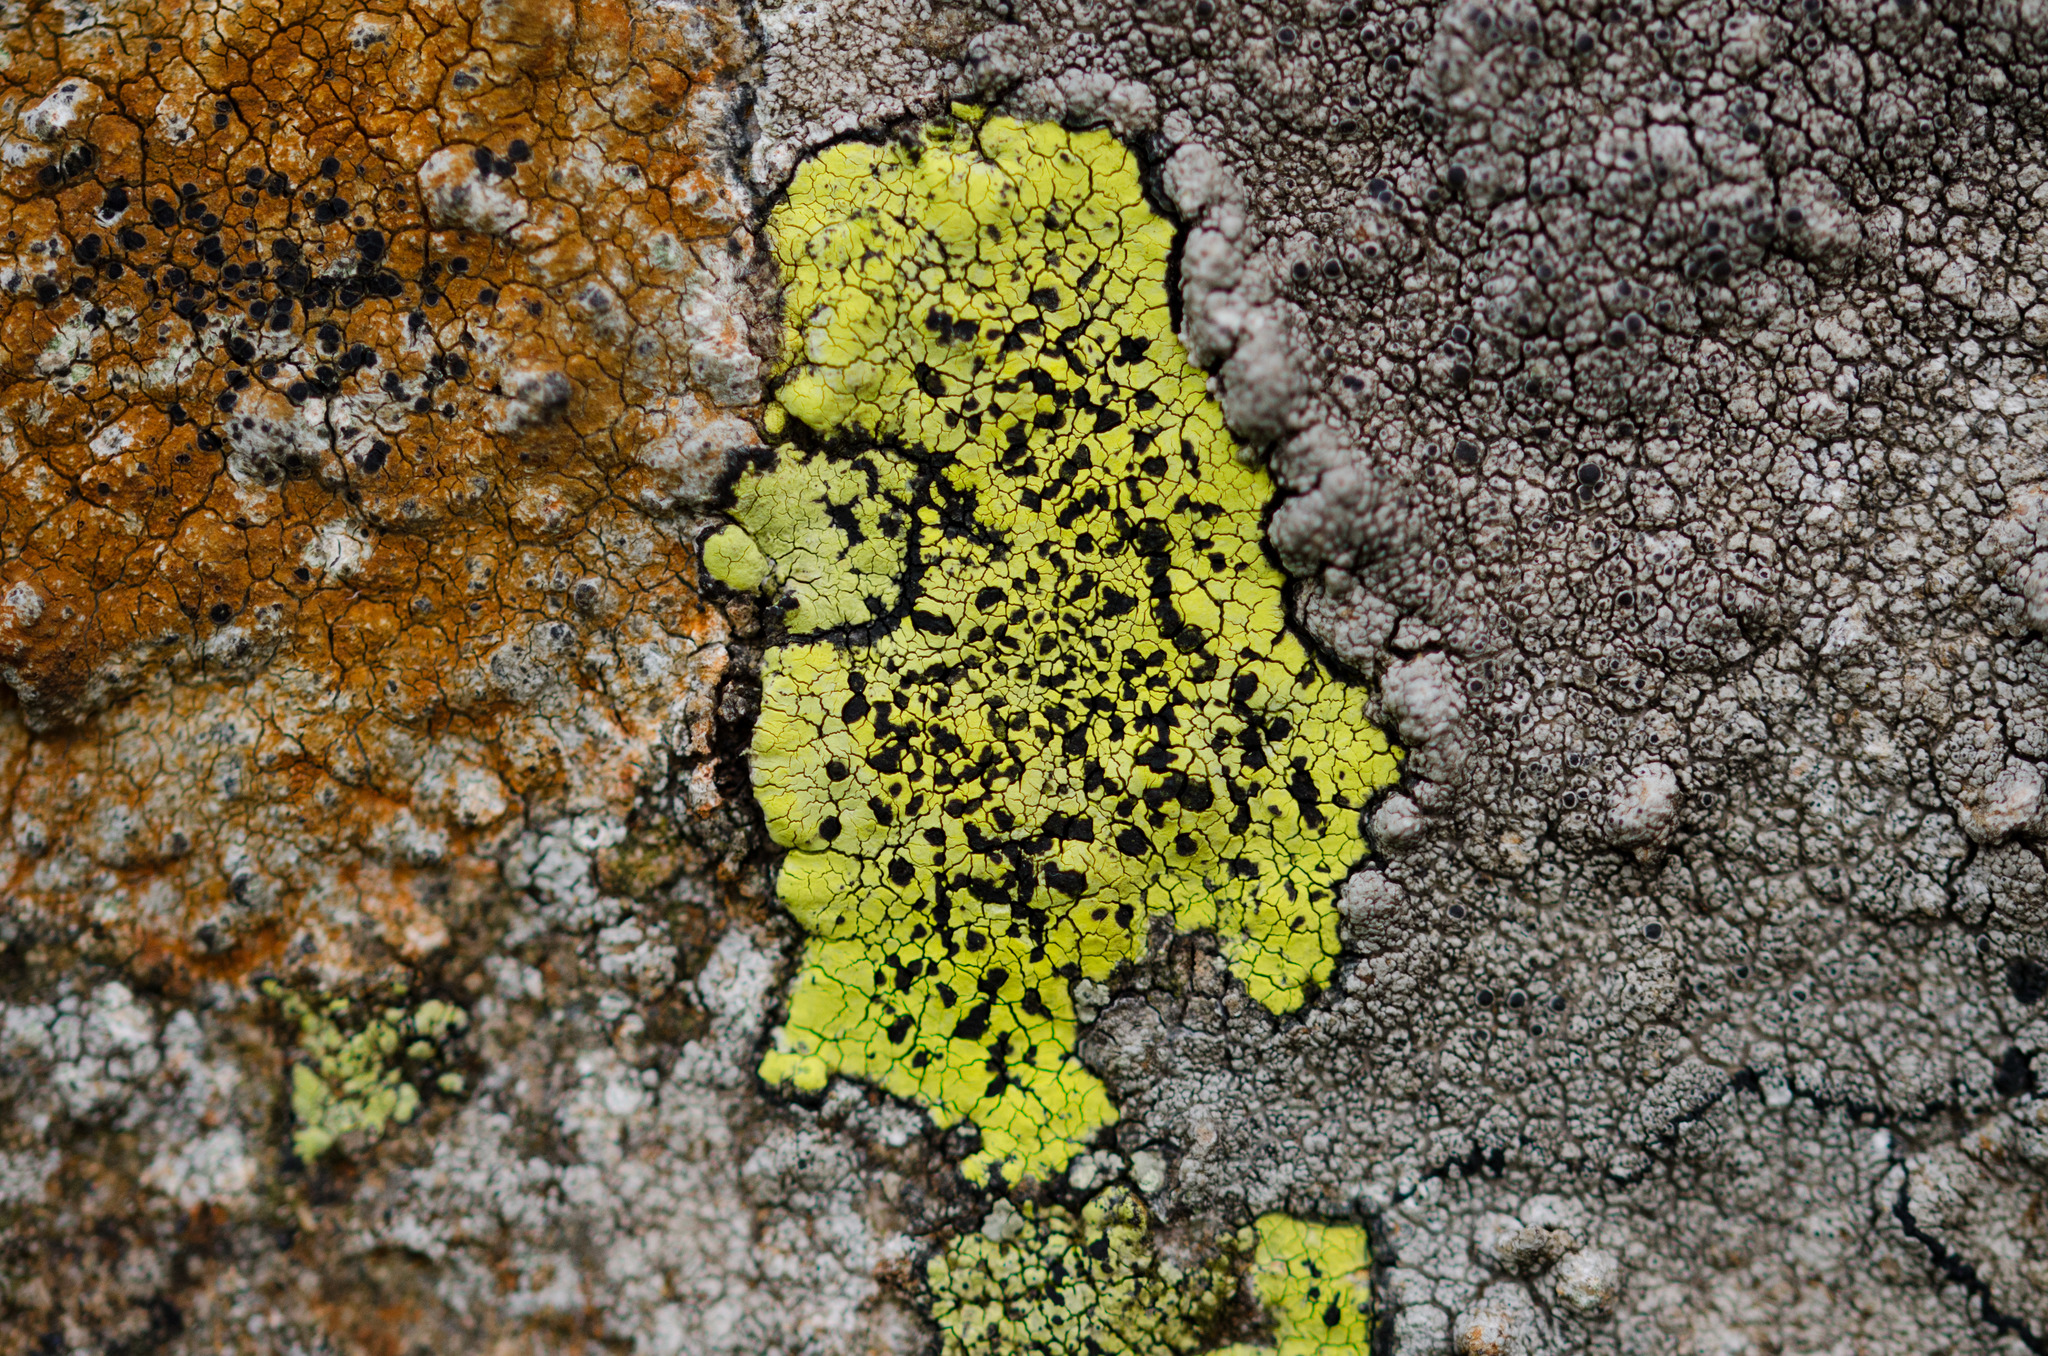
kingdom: Fungi
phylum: Ascomycota
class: Lecanoromycetes
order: Rhizocarpales
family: Rhizocarpaceae
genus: Rhizocarpon
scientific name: Rhizocarpon geographicum
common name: Yellow map lichen
